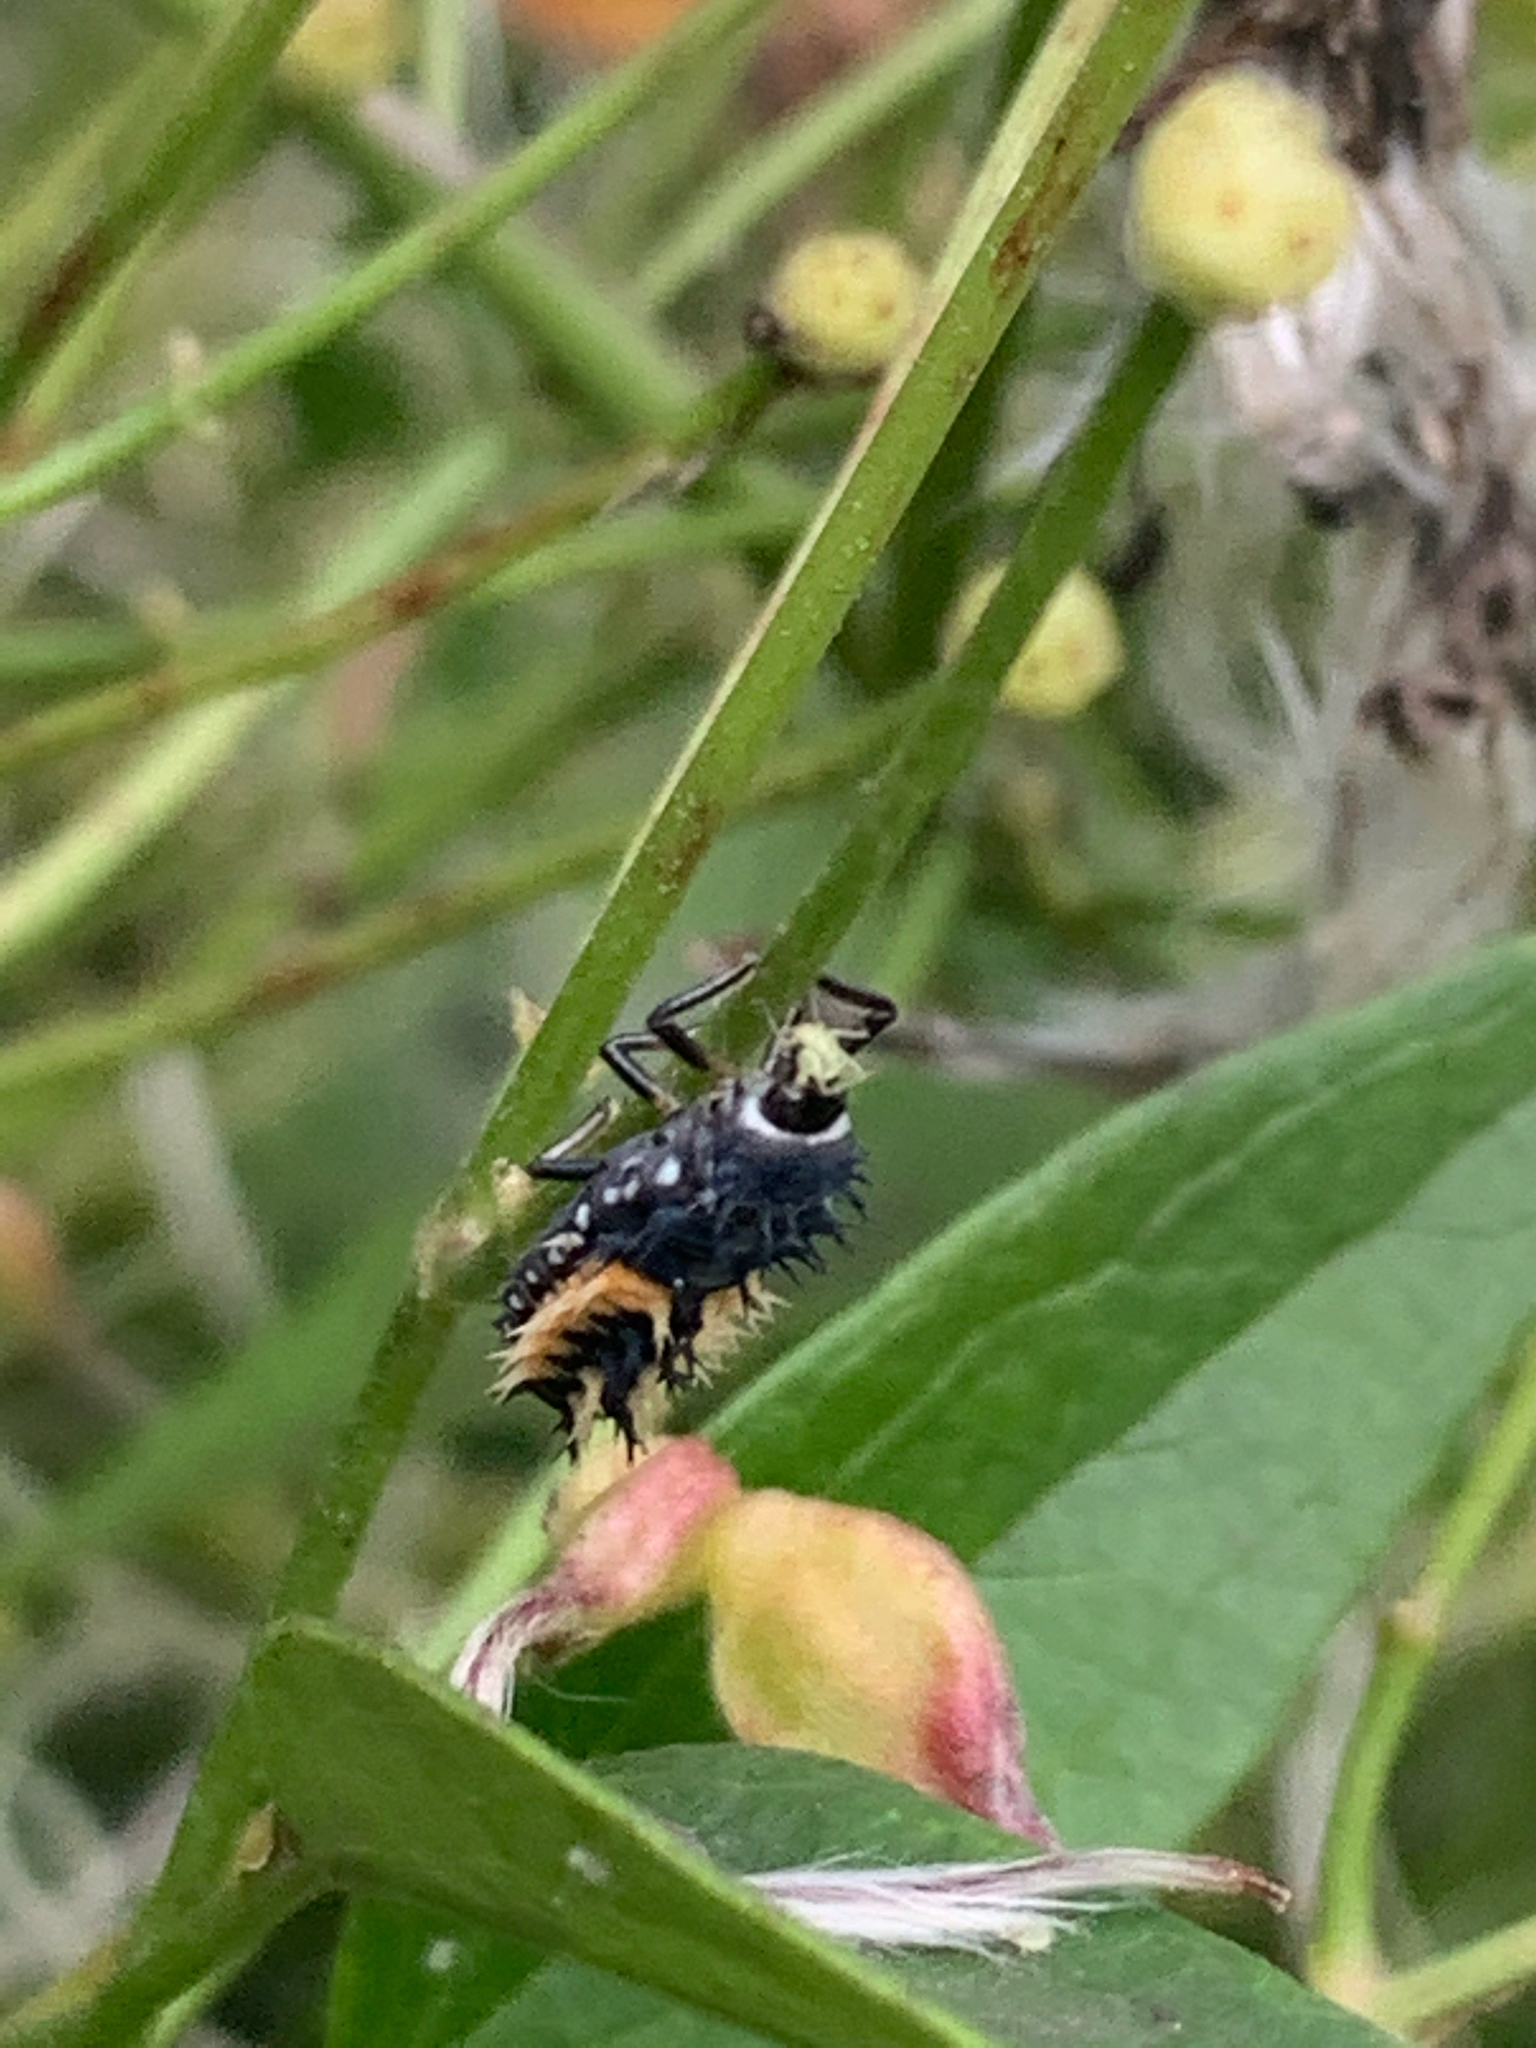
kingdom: Animalia
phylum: Arthropoda
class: Insecta
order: Coleoptera
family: Coccinellidae
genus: Harmonia
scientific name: Harmonia axyridis
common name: Harlequin ladybird
